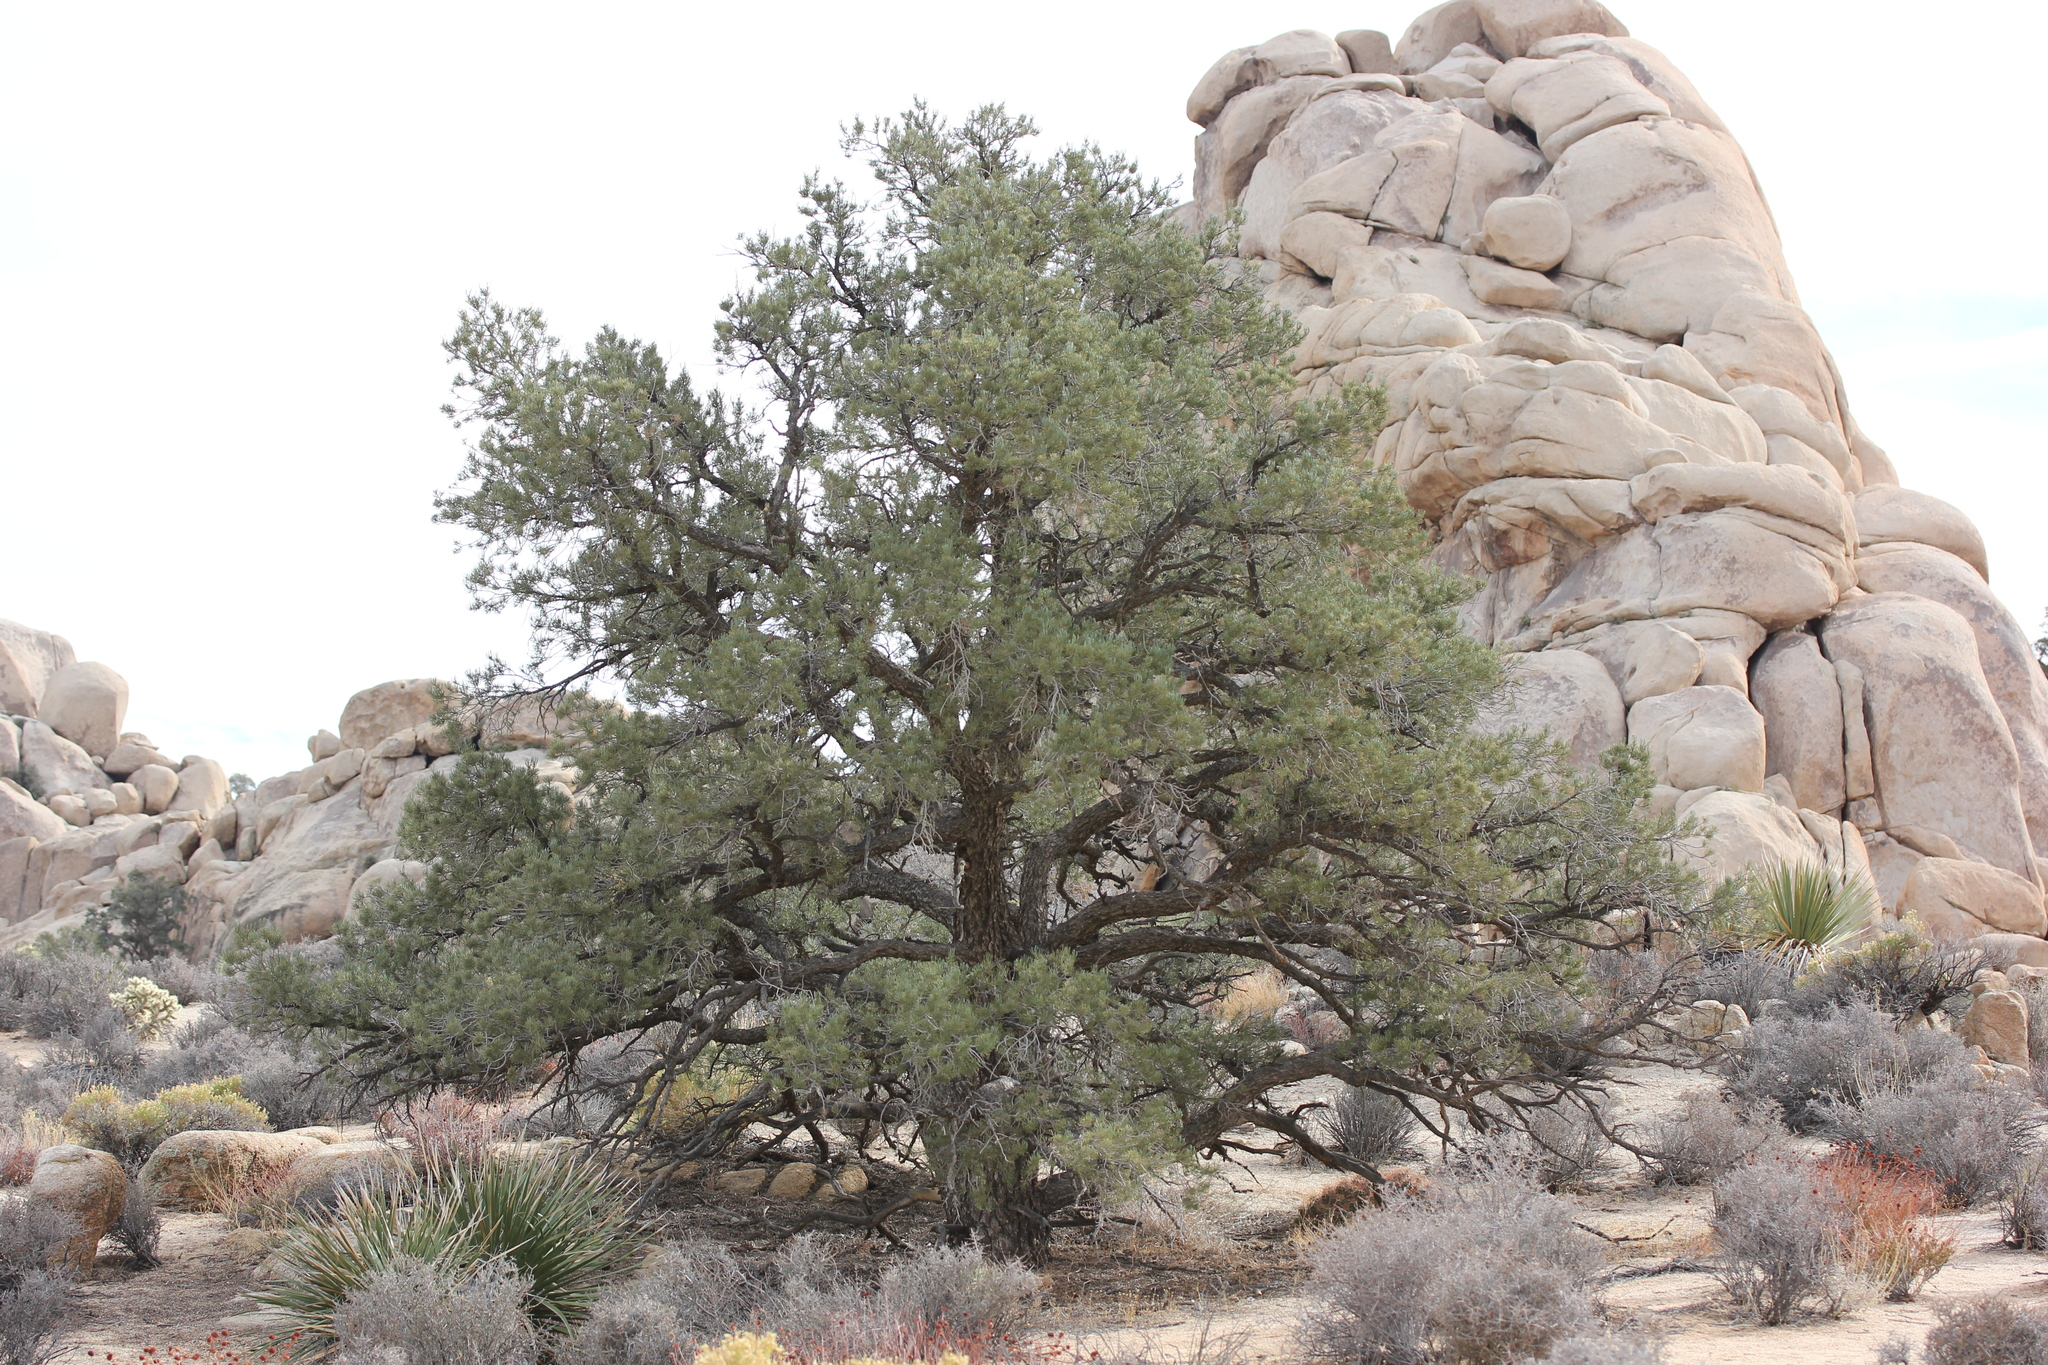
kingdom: Plantae
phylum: Tracheophyta
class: Pinopsida
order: Pinales
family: Pinaceae
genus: Pinus
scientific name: Pinus monophylla
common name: One-leaved nut pine
